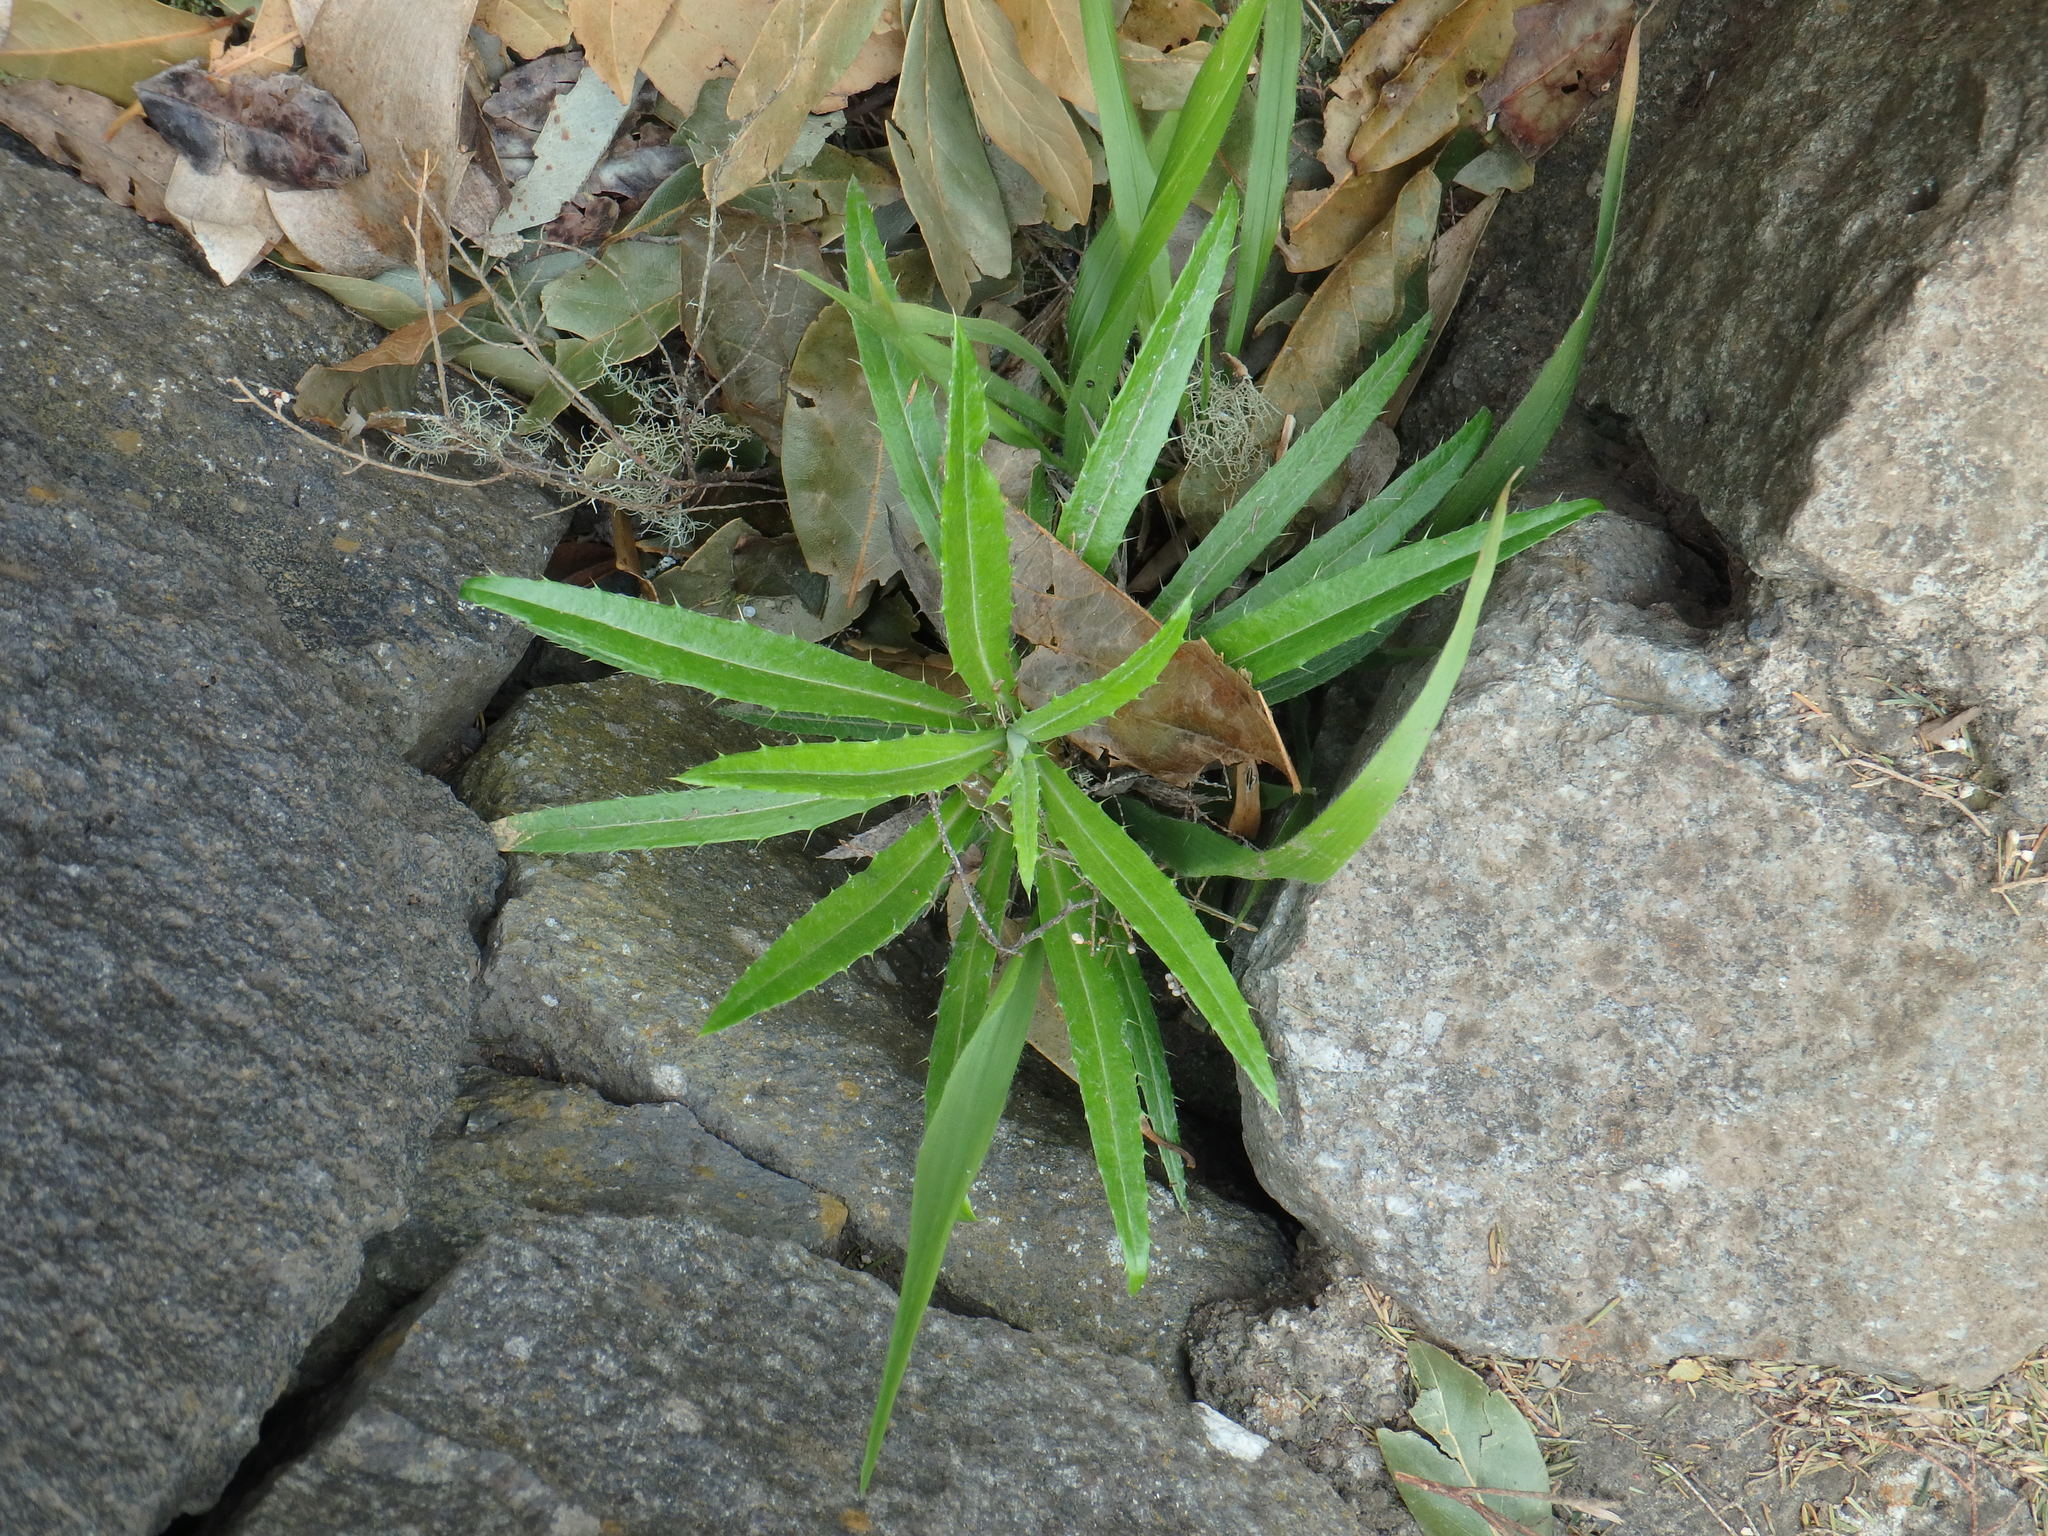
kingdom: Plantae
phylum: Tracheophyta
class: Magnoliopsida
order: Asterales
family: Asteraceae
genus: Carlina
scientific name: Carlina salicifolia
